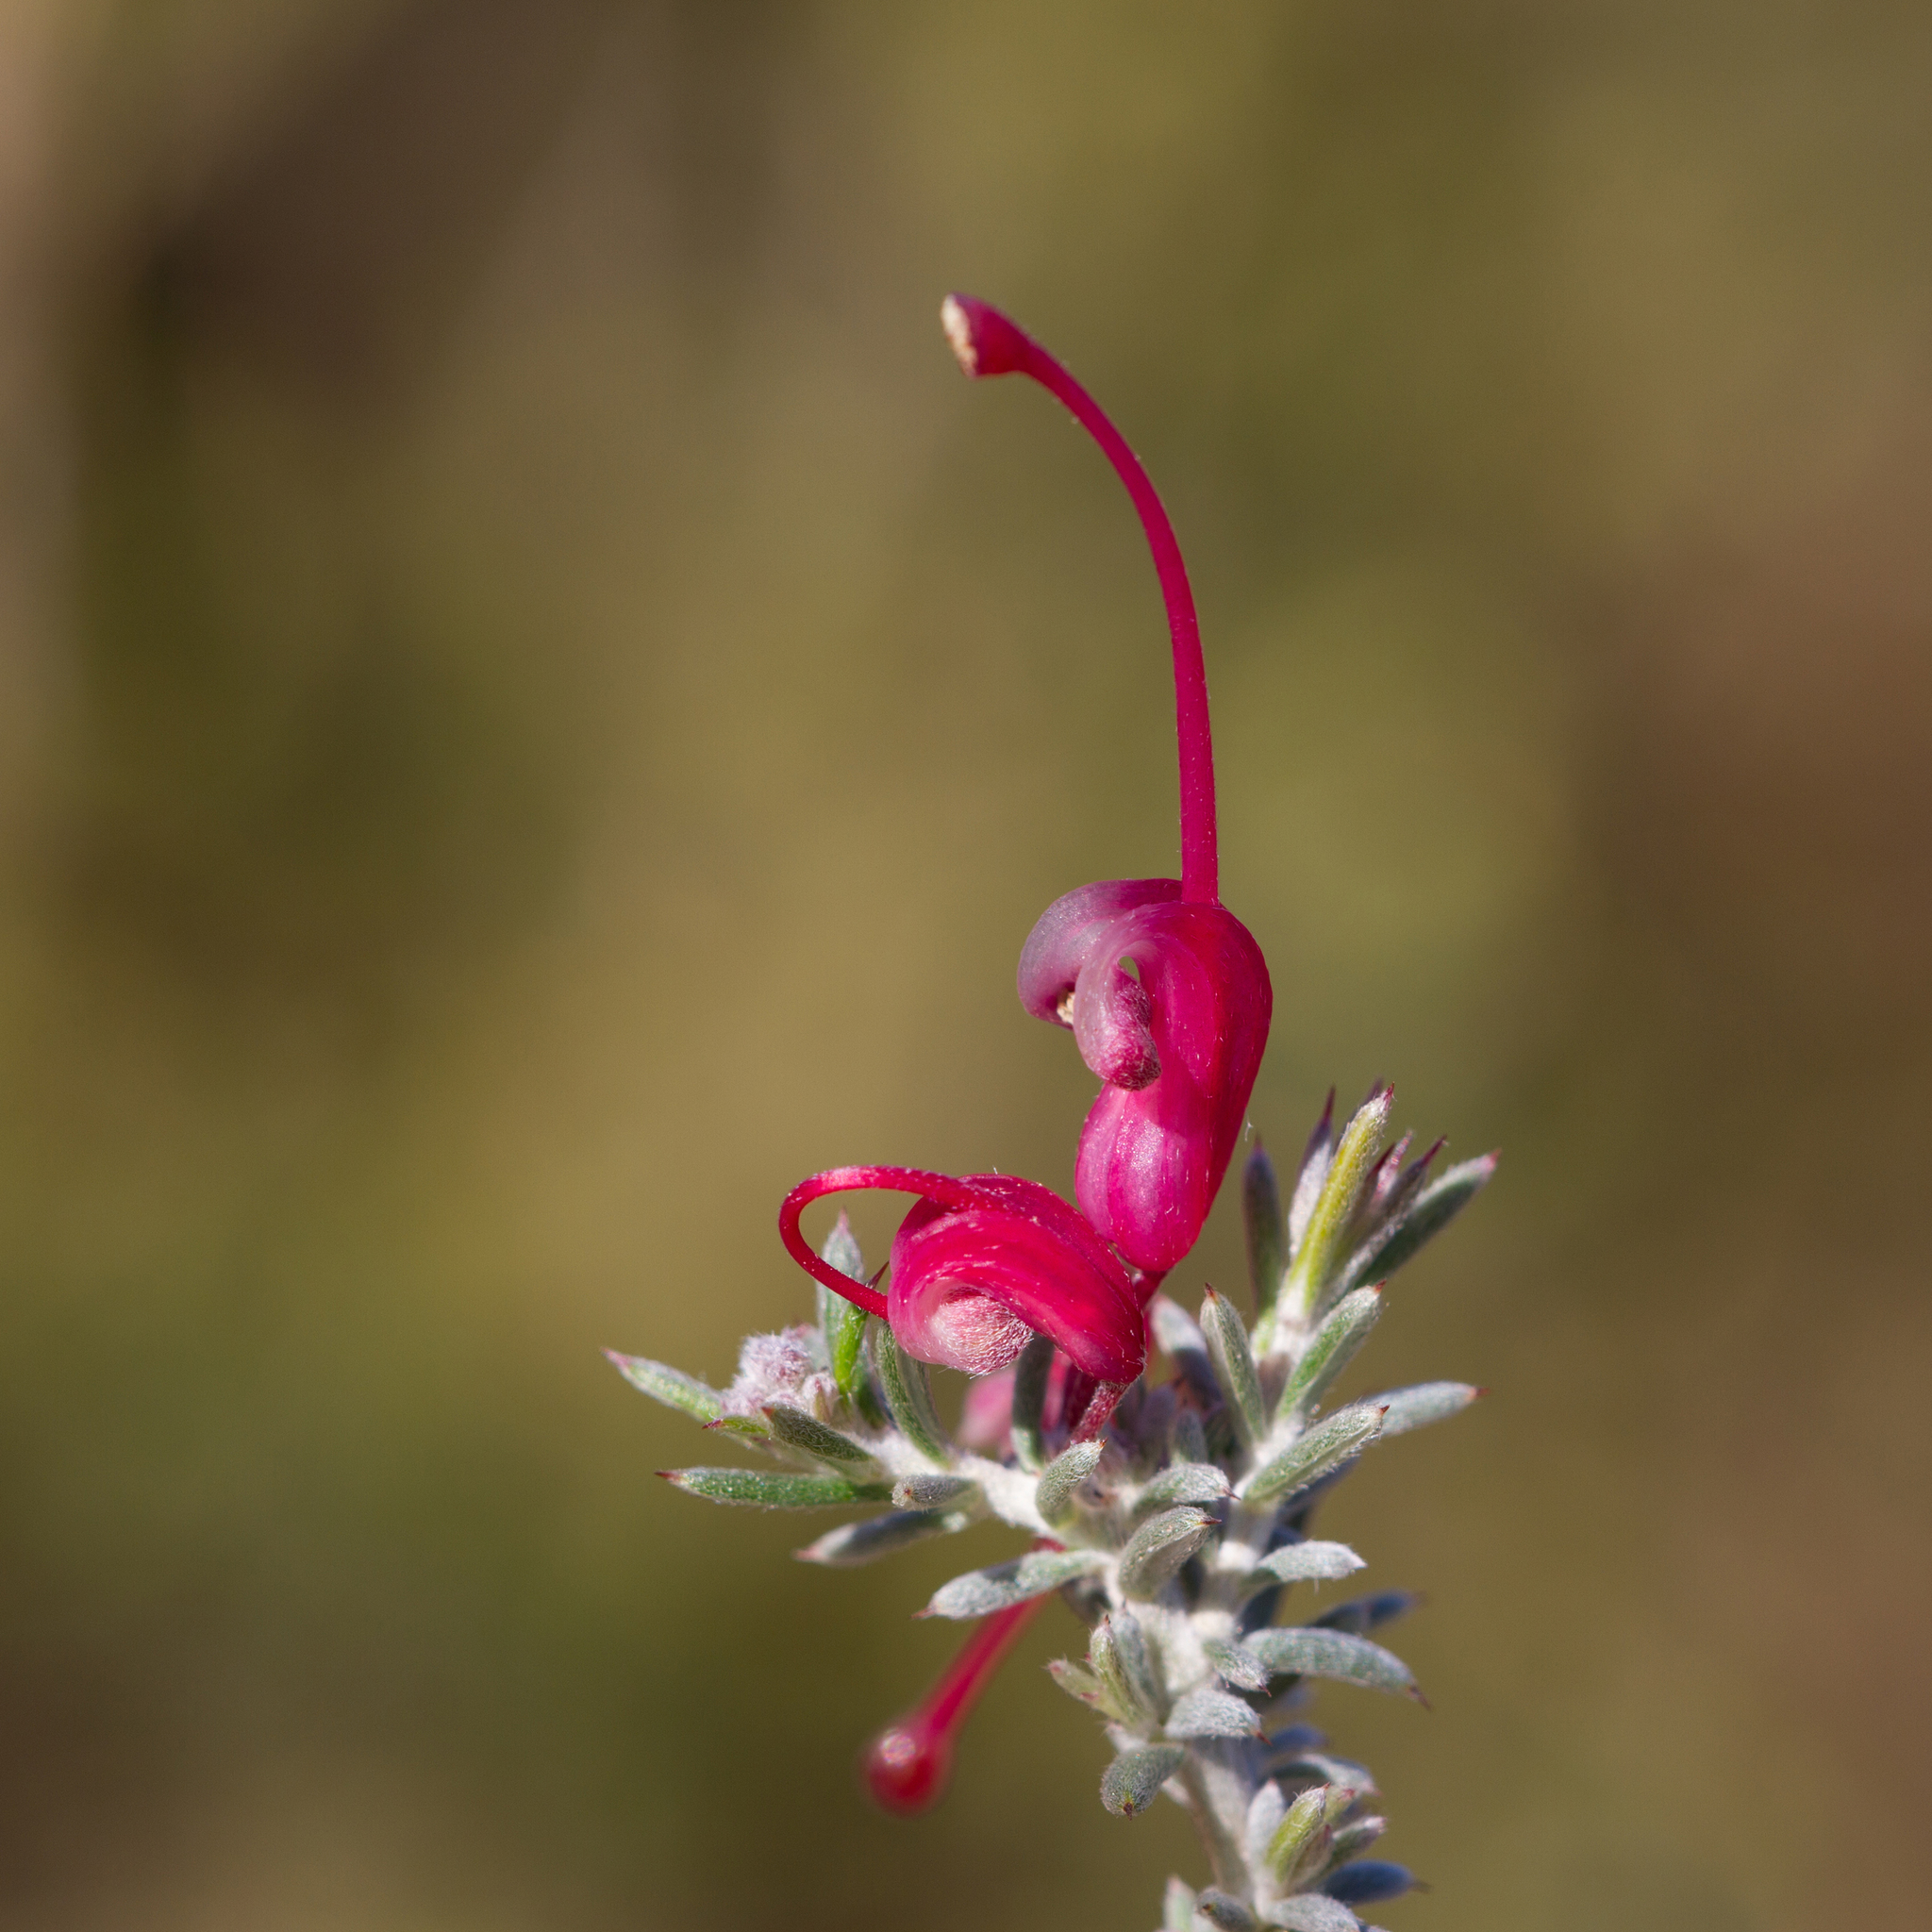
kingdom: Plantae
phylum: Tracheophyta
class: Magnoliopsida
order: Proteales
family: Proteaceae
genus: Grevillea
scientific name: Grevillea lavandulacea
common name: Lavender grevillea
